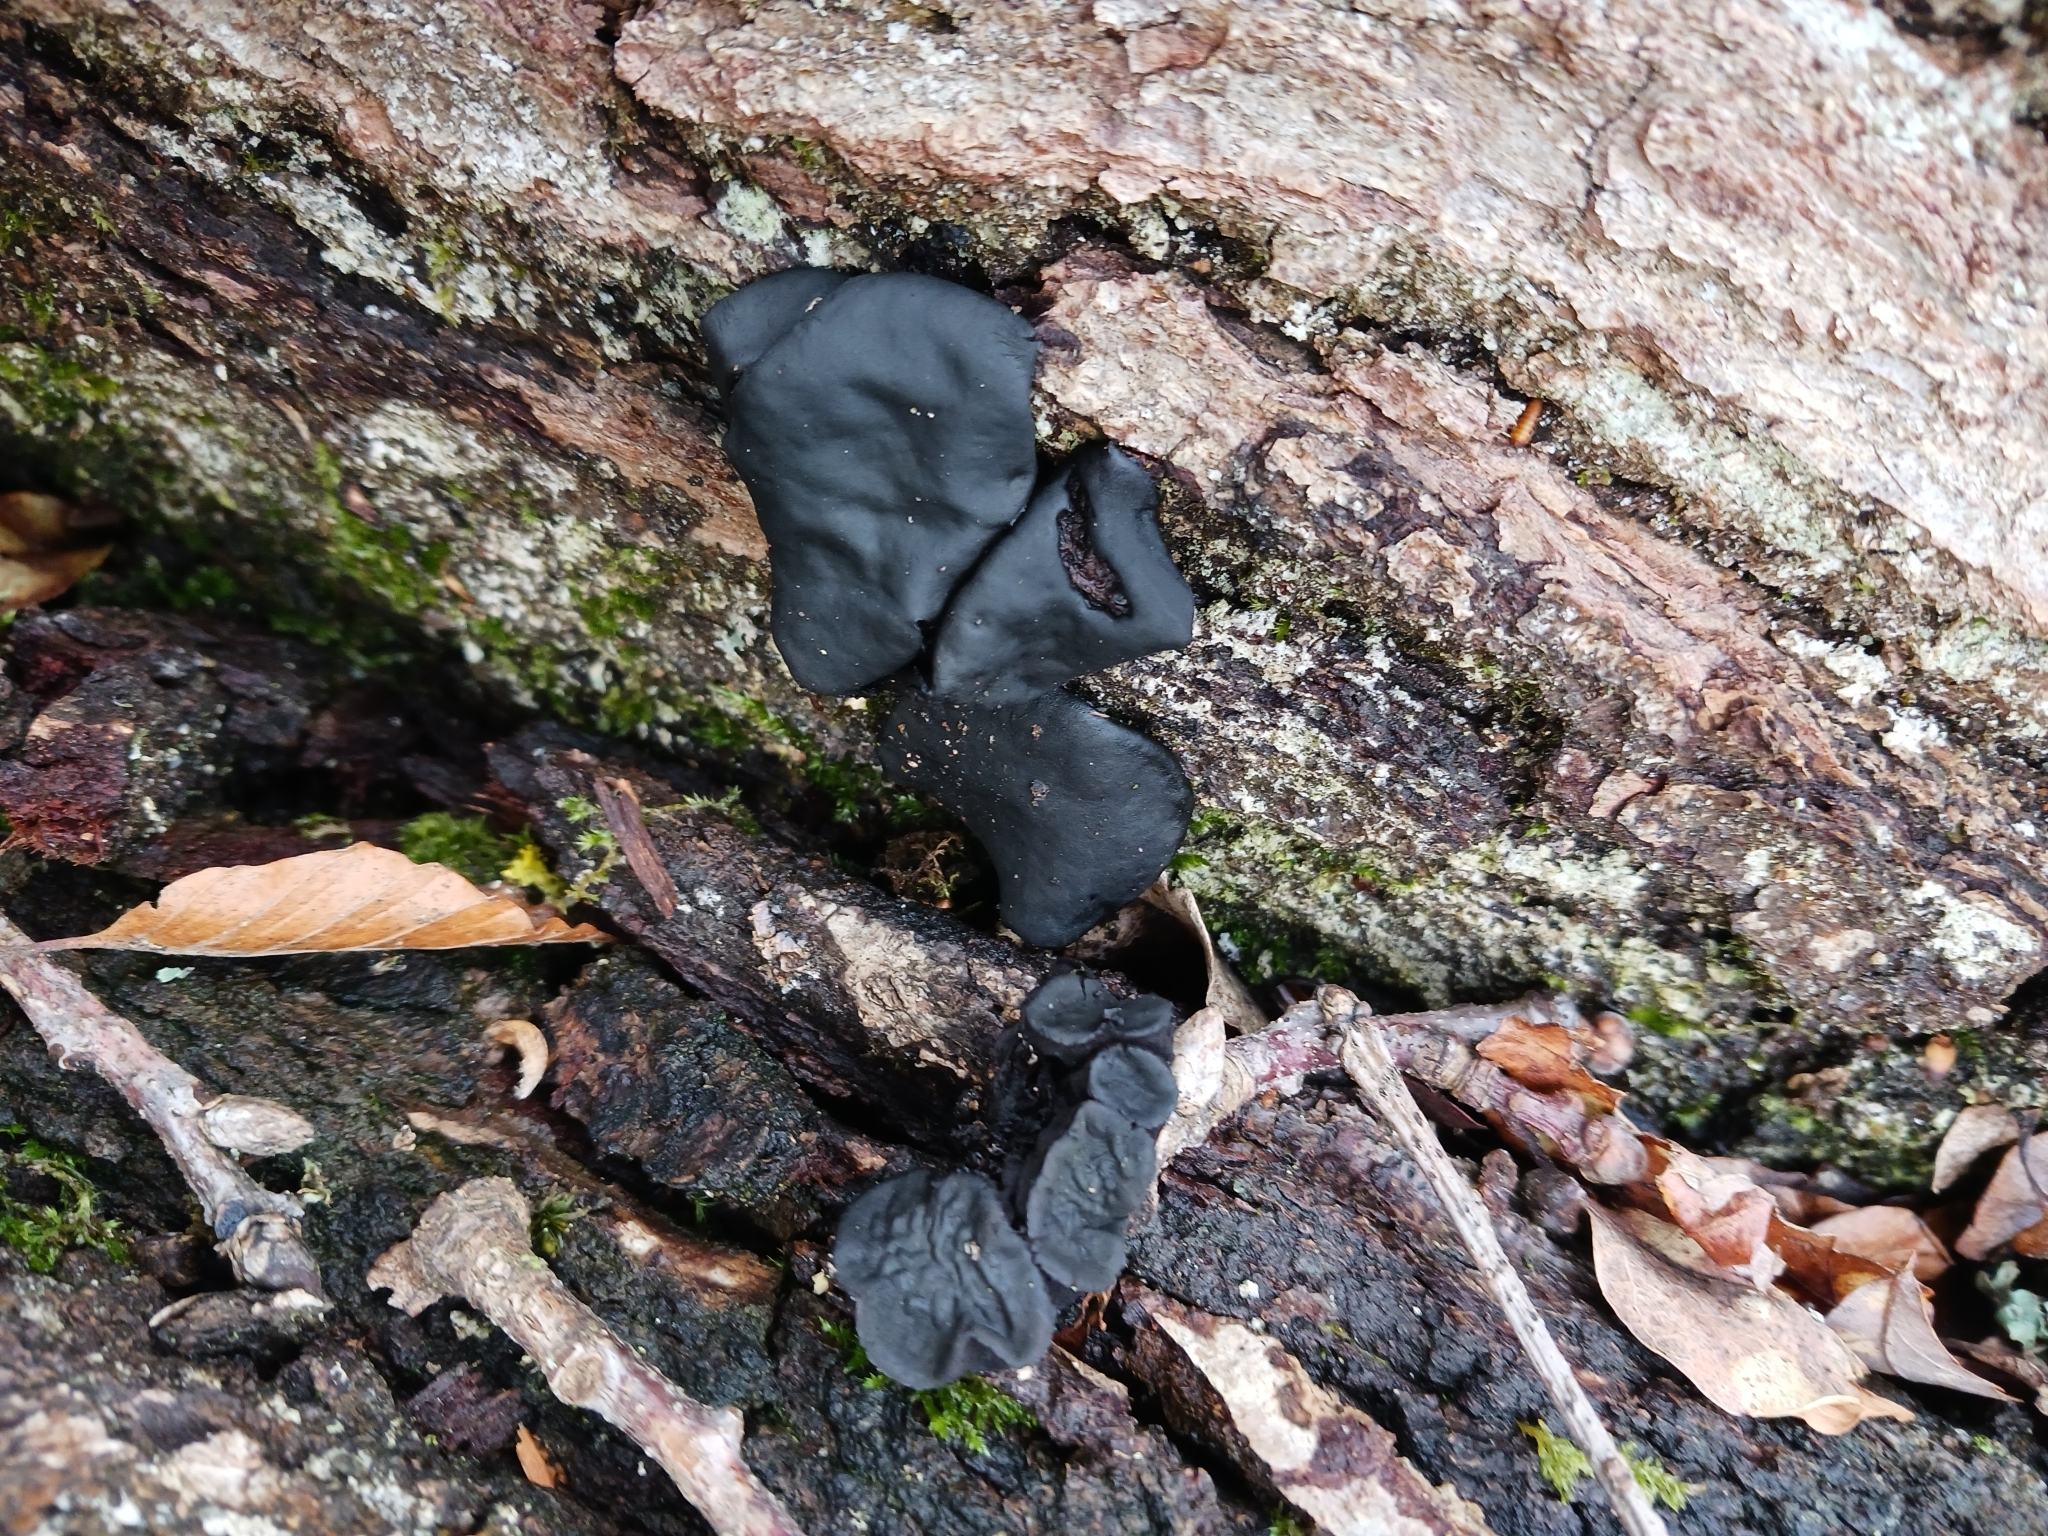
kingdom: Fungi
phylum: Ascomycota
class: Leotiomycetes
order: Phacidiales
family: Phacidiaceae
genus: Bulgaria
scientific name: Bulgaria inquinans
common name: Black bulgar
